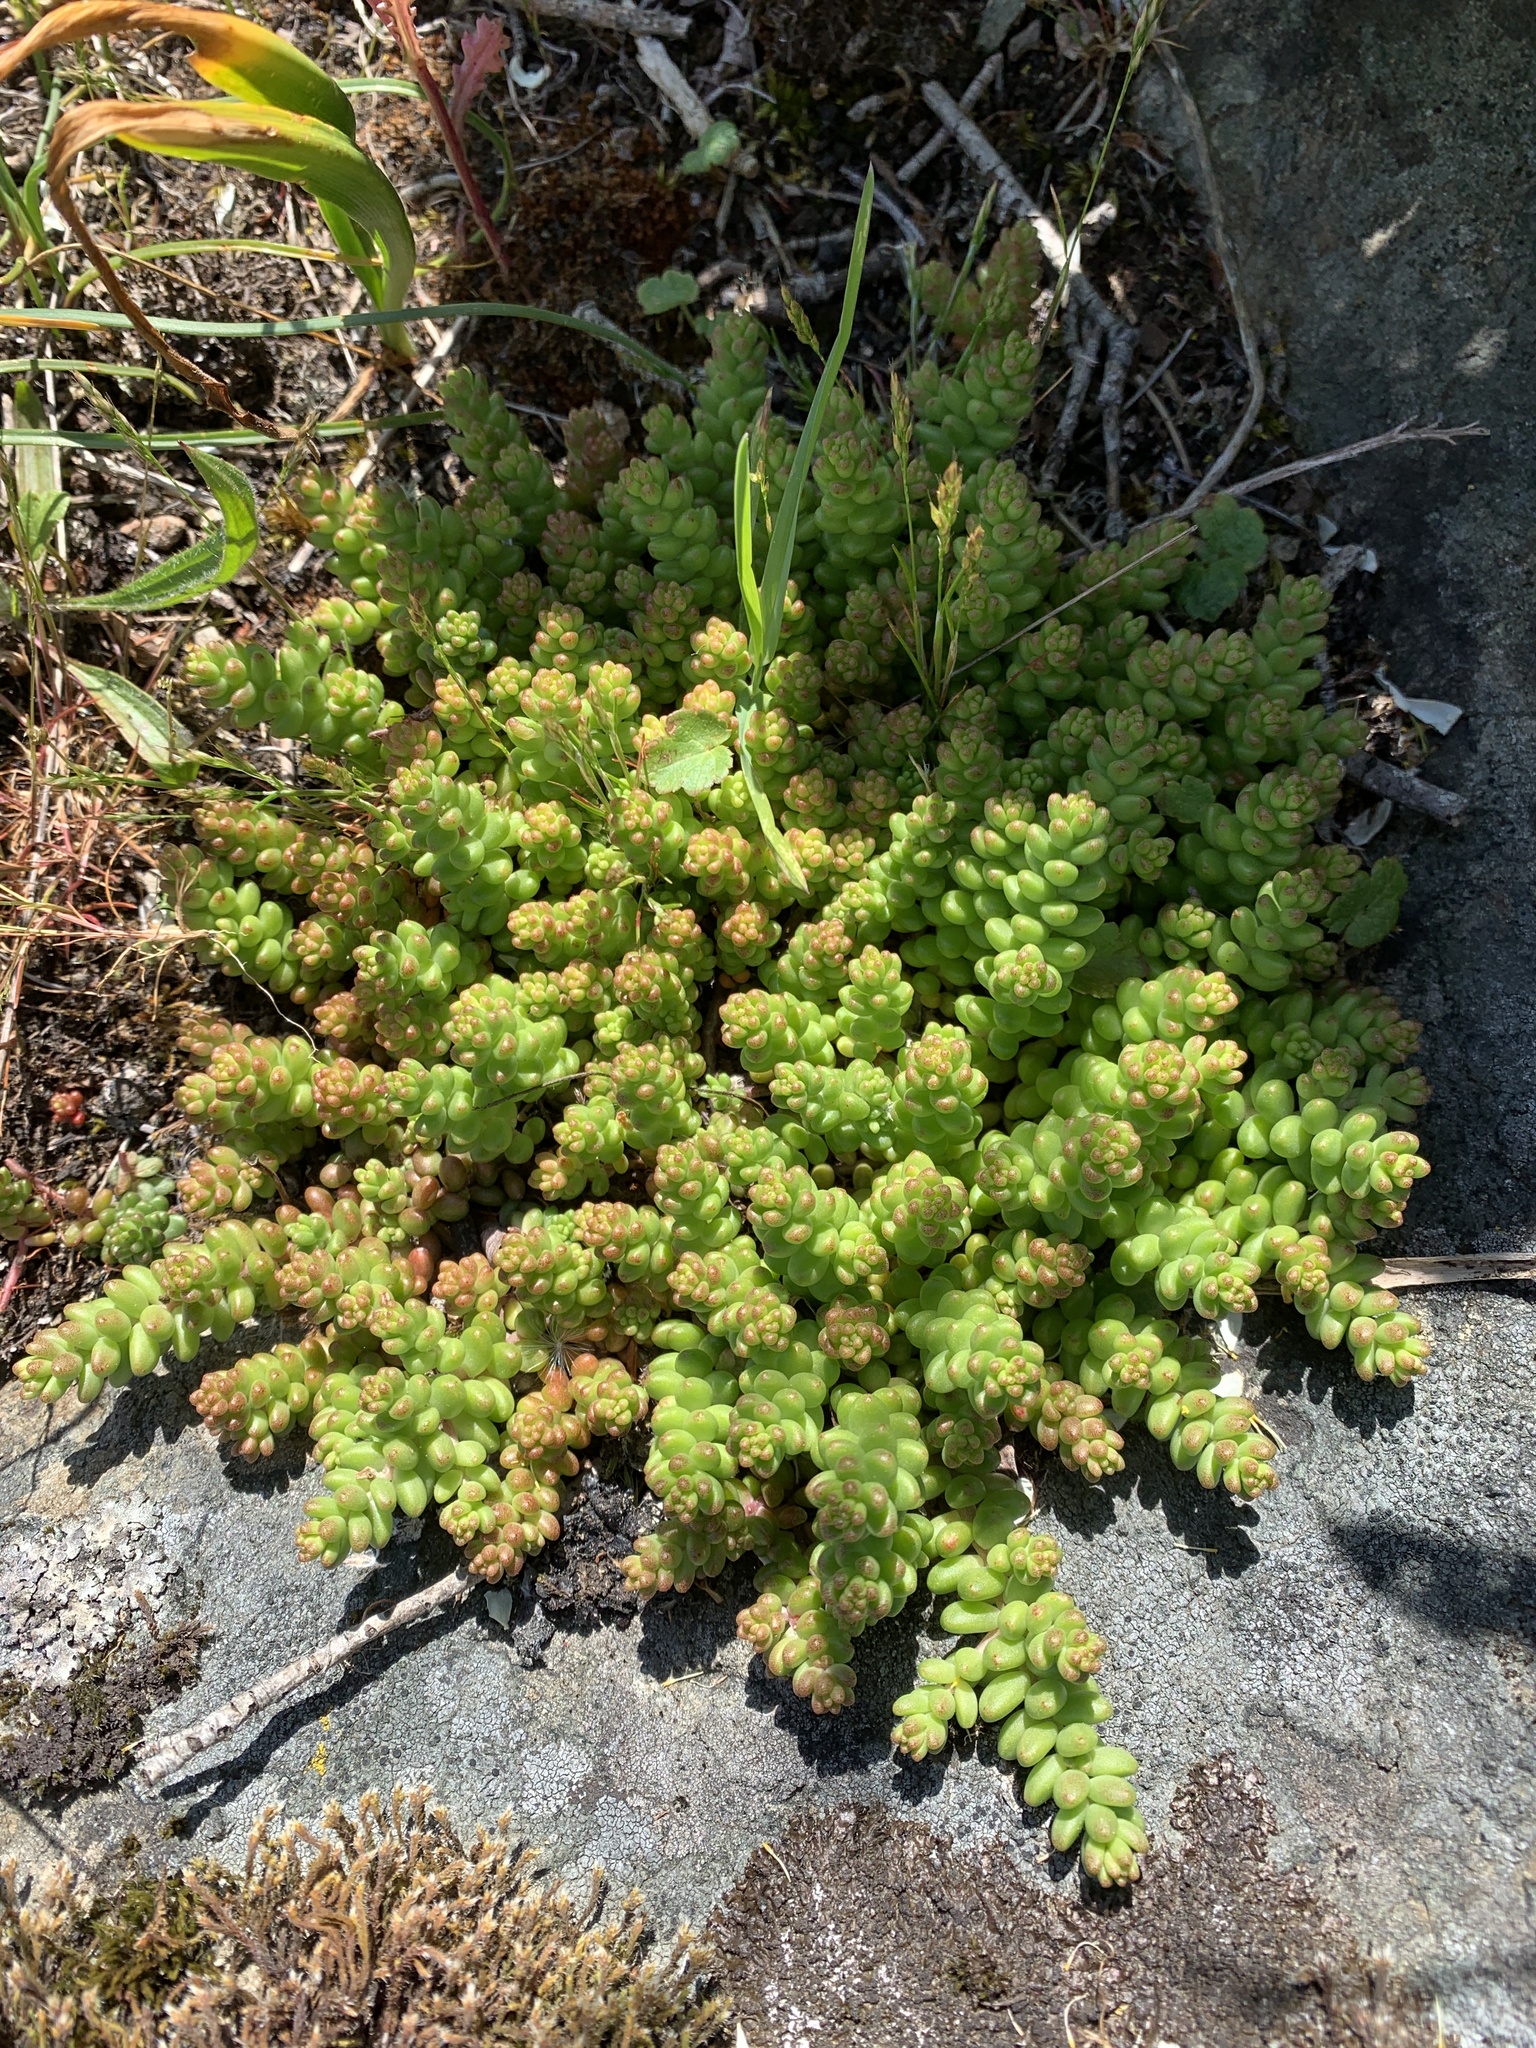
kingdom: Plantae
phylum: Tracheophyta
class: Magnoliopsida
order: Saxifragales
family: Crassulaceae
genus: Sedum
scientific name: Sedum album
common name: White stonecrop
